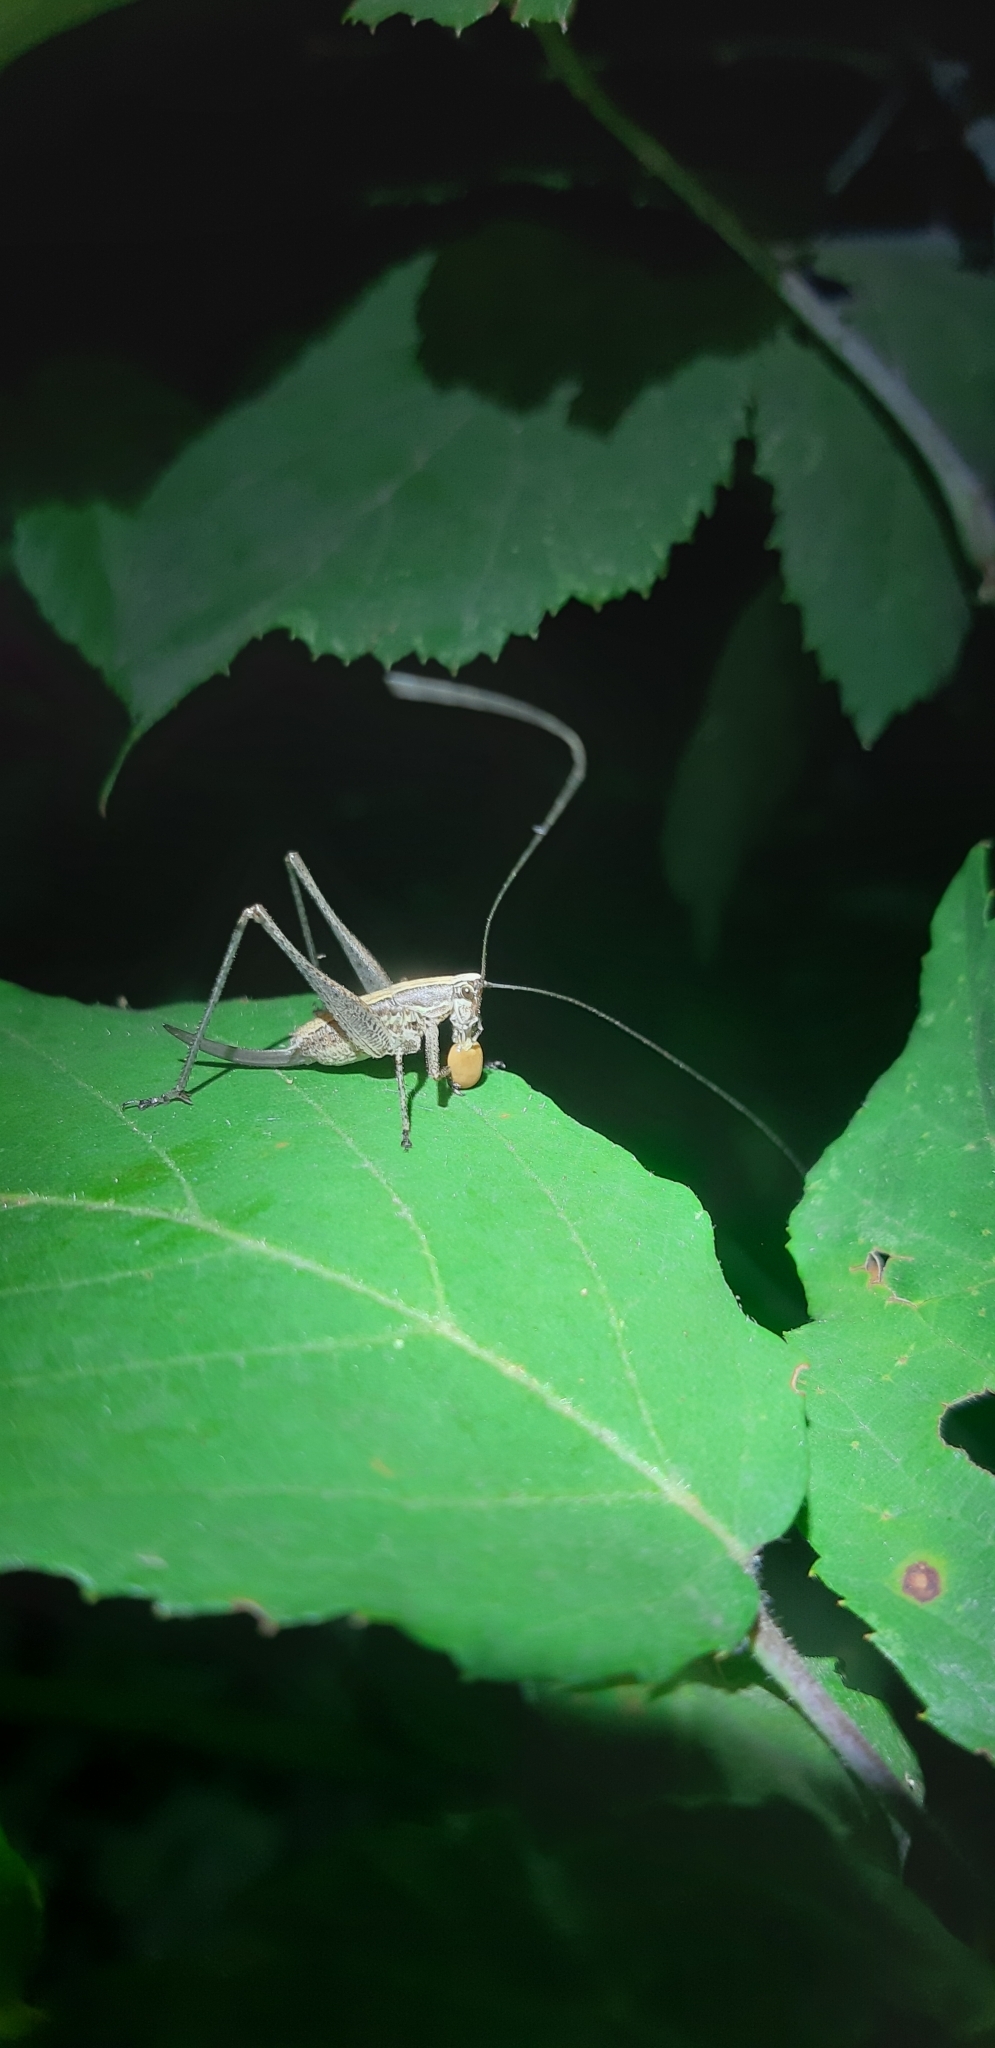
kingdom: Animalia
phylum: Arthropoda
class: Insecta
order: Orthoptera
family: Tettigoniidae
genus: Yersinella
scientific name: Yersinella raymondii
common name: Raymond's bush-cricket
